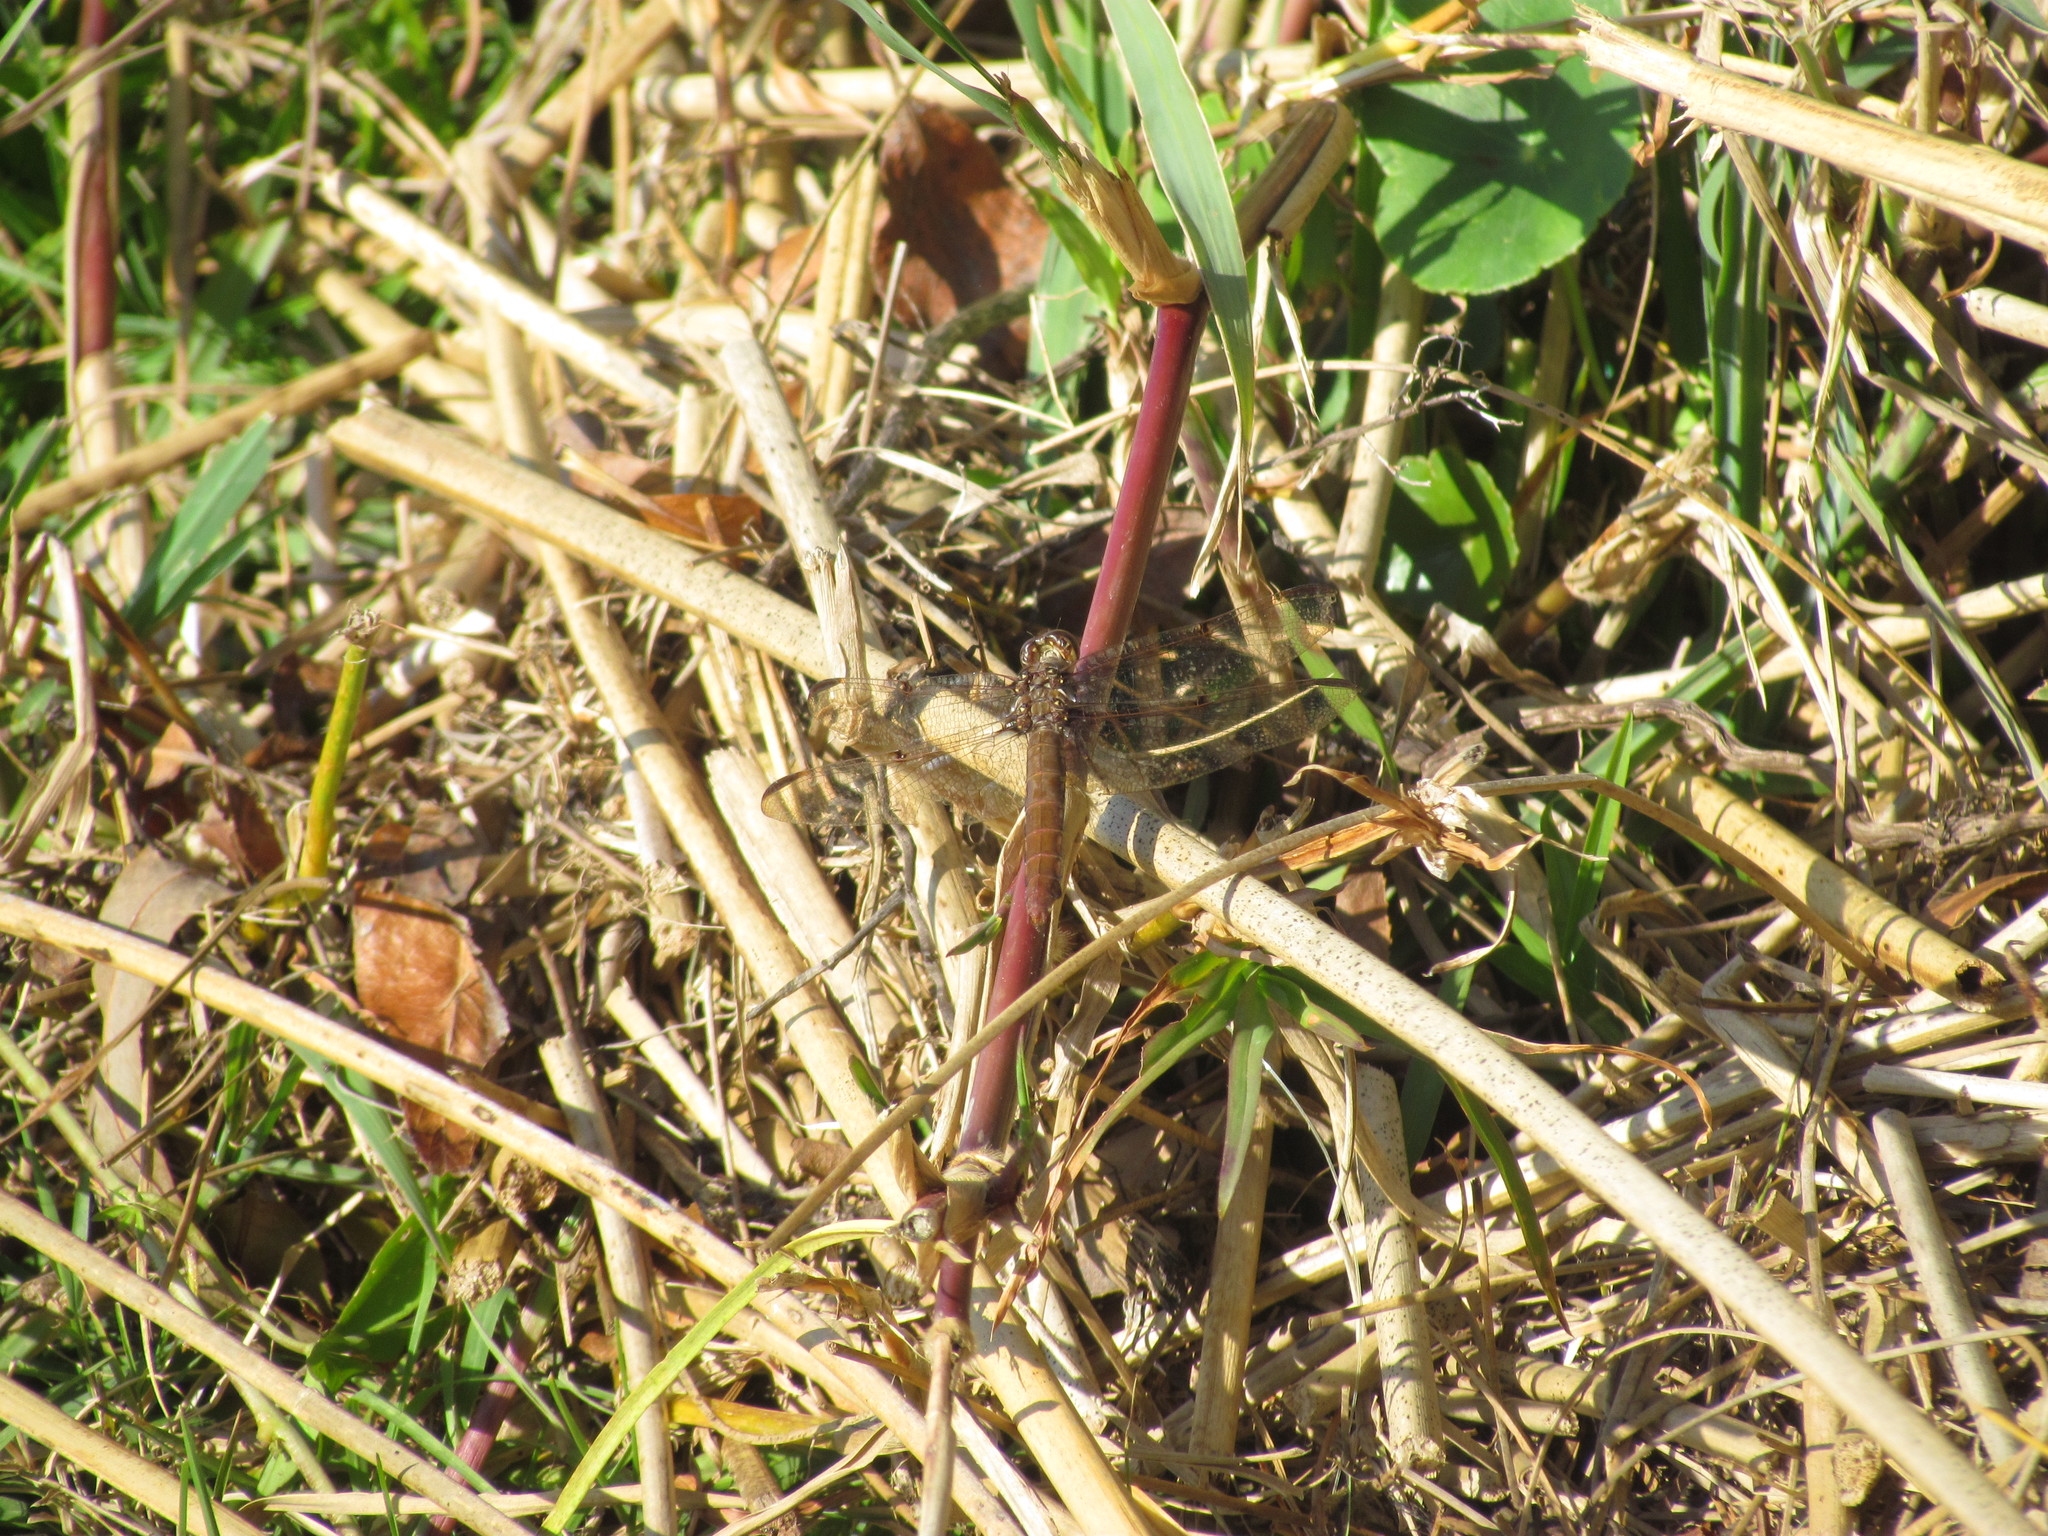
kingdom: Animalia
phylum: Arthropoda
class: Insecta
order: Odonata
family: Libellulidae
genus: Orthemis
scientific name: Orthemis nodiplaga
